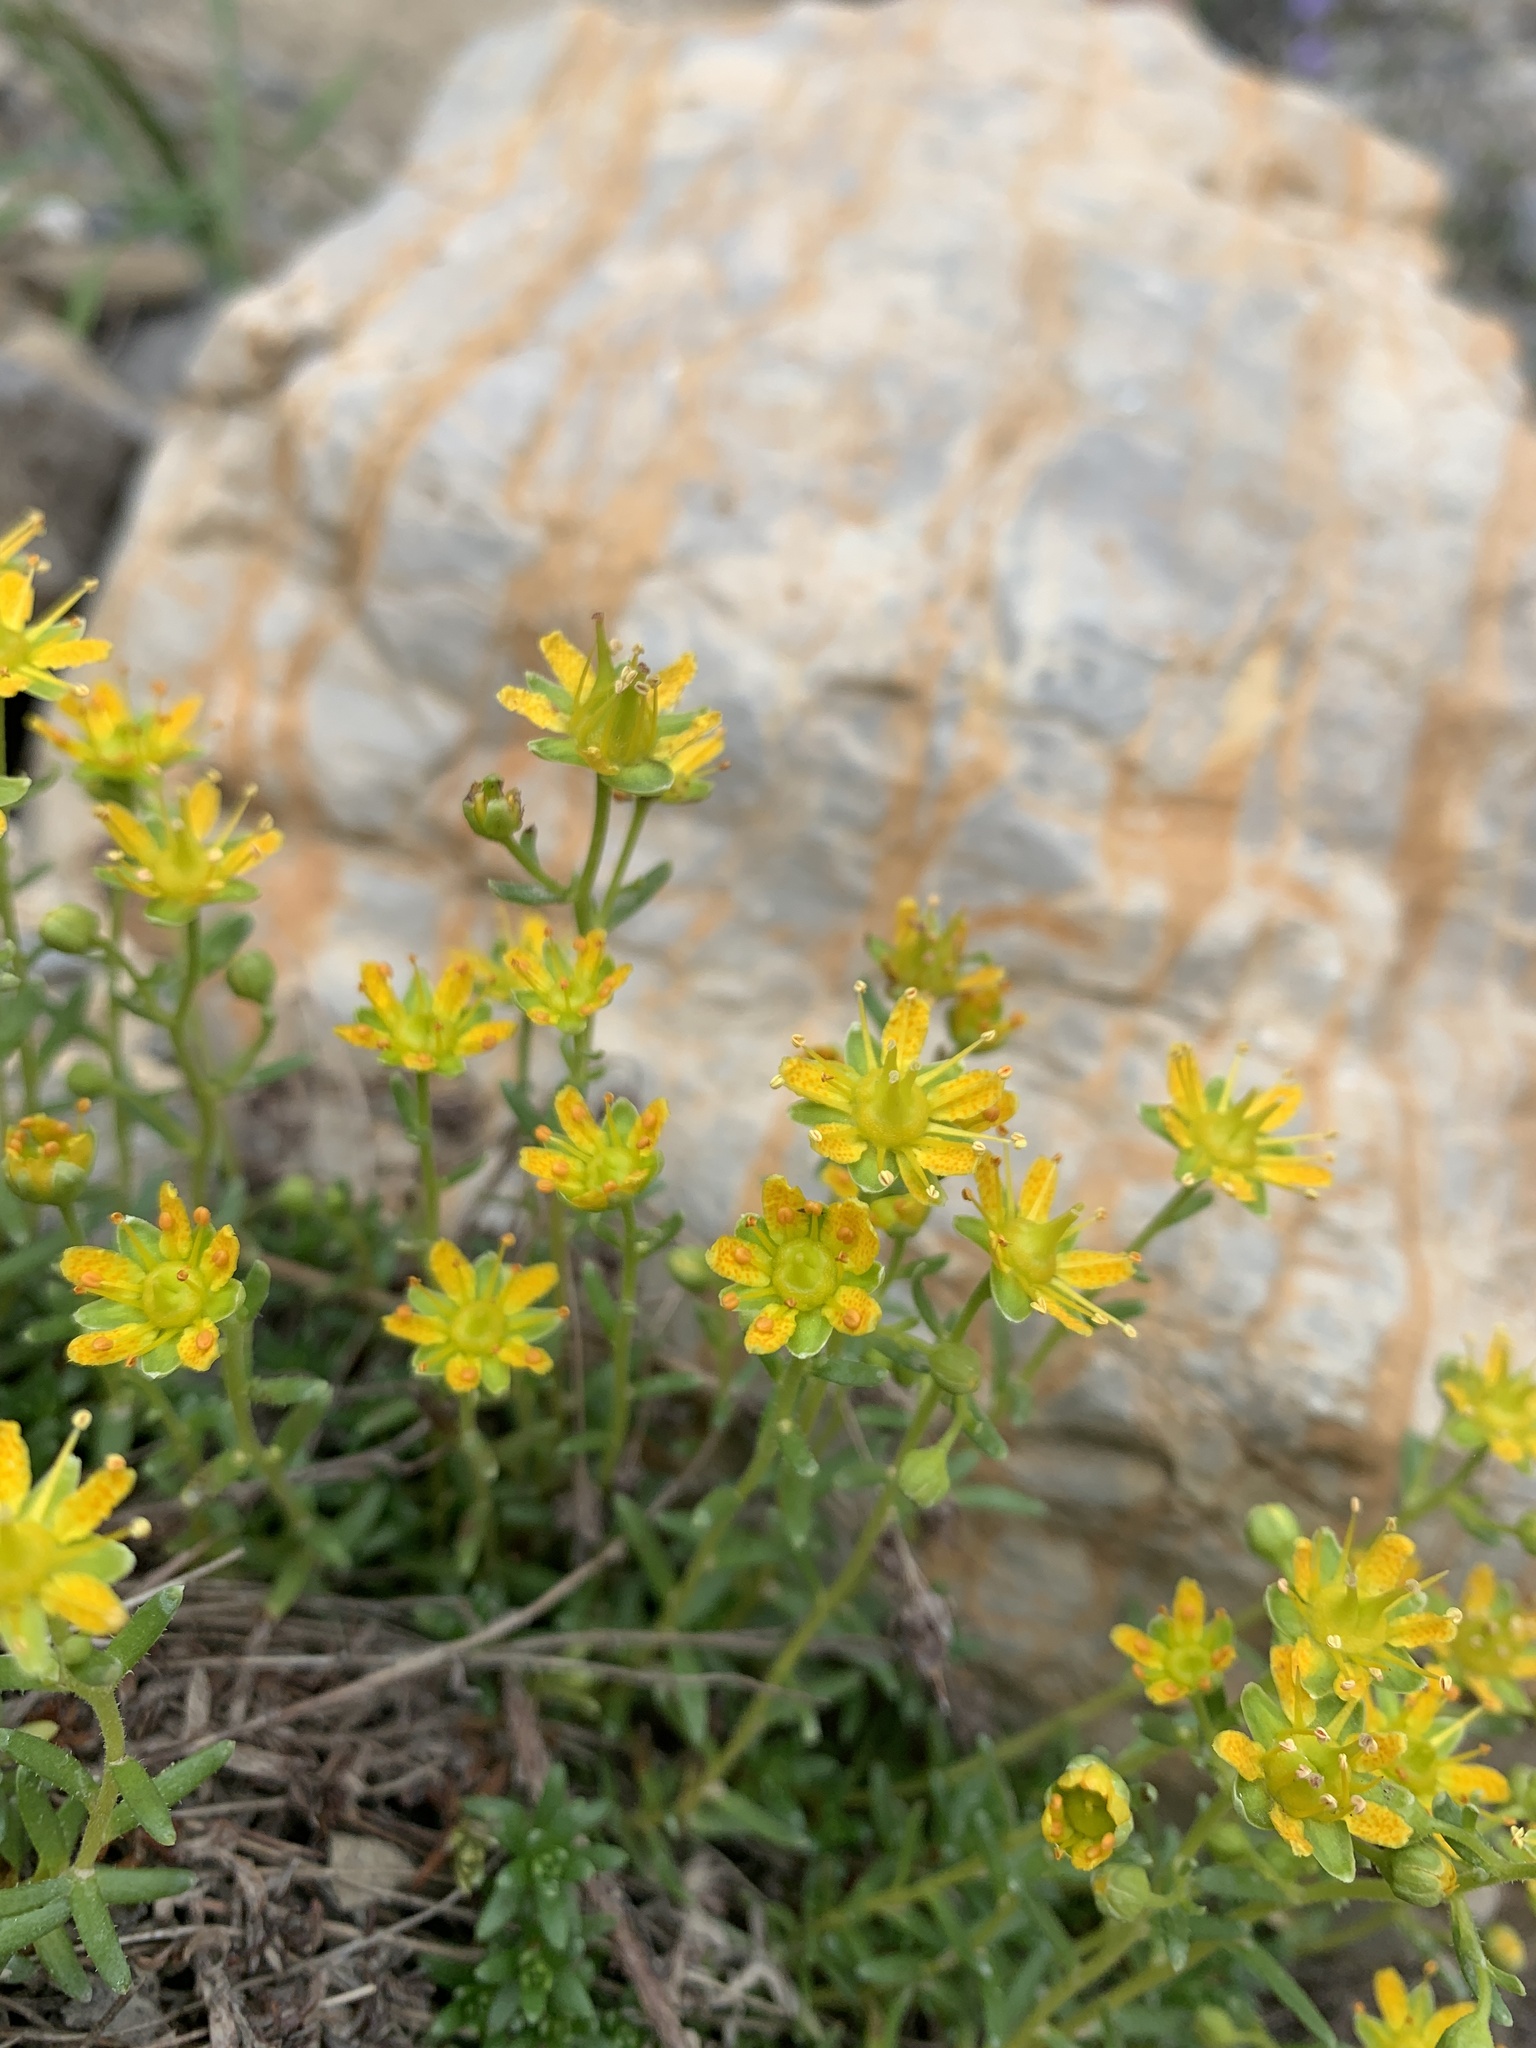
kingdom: Plantae
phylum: Tracheophyta
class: Magnoliopsida
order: Saxifragales
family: Saxifragaceae
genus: Saxifraga
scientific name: Saxifraga aizoides
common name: Yellow mountain saxifrage
